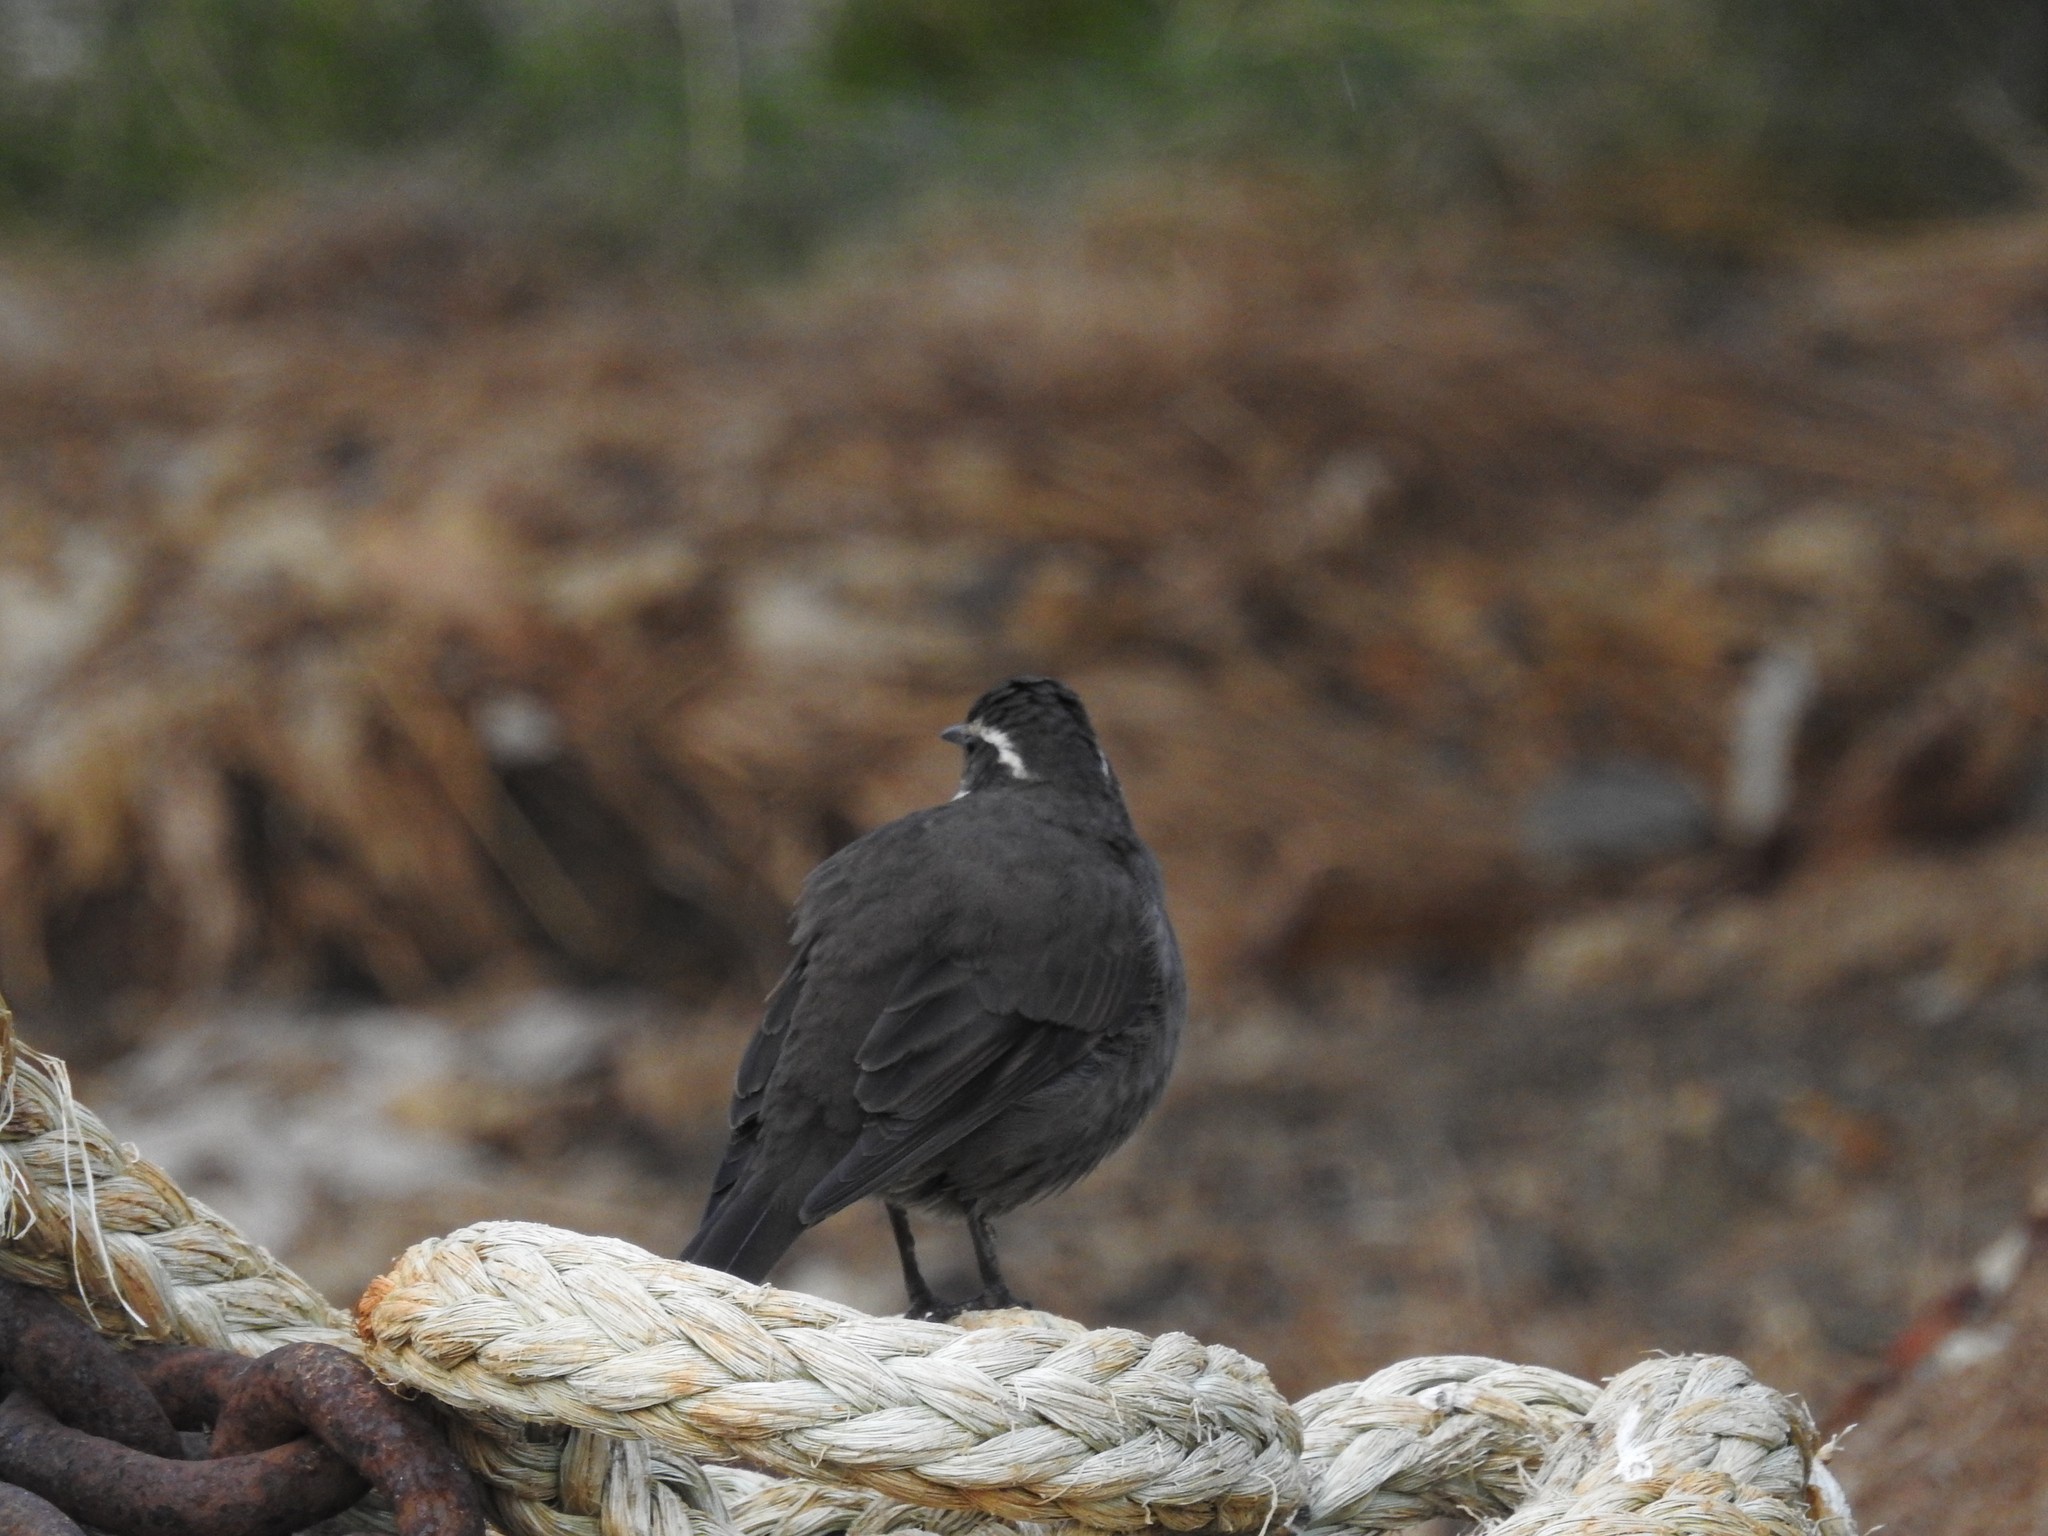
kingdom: Animalia
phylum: Chordata
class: Aves
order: Passeriformes
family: Furnariidae
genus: Cinclodes
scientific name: Cinclodes patagonicus
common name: Dark-bellied cinclodes
